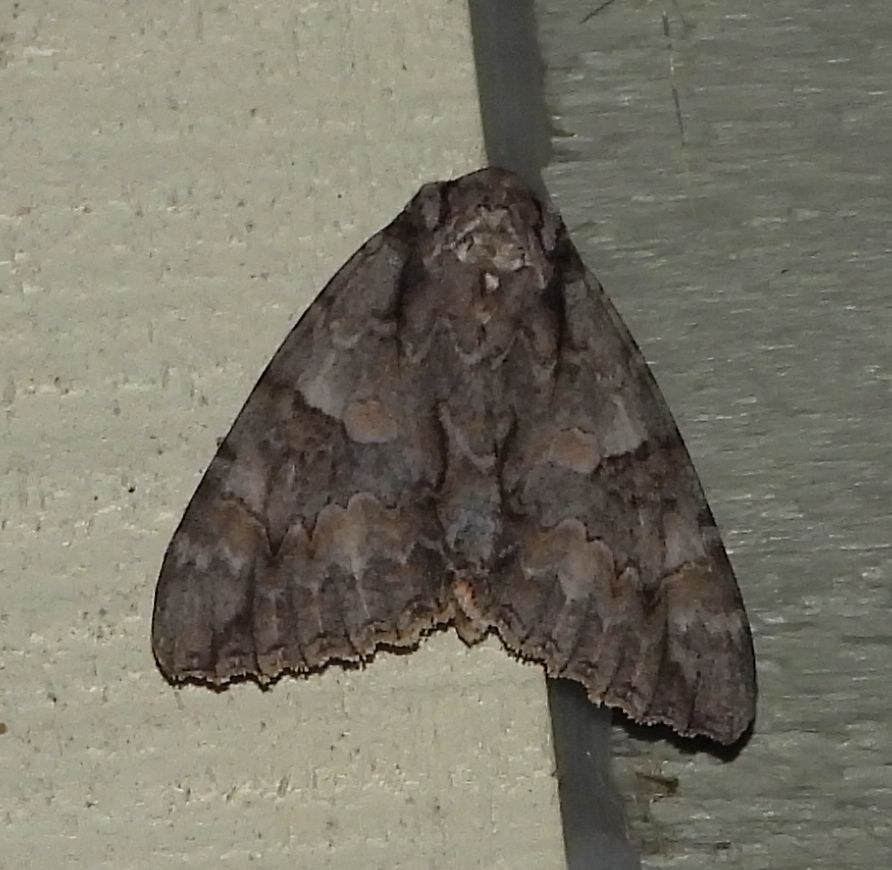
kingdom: Animalia
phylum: Arthropoda
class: Insecta
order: Lepidoptera
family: Erebidae
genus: Catocala
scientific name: Catocala parta
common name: Mother underwing
